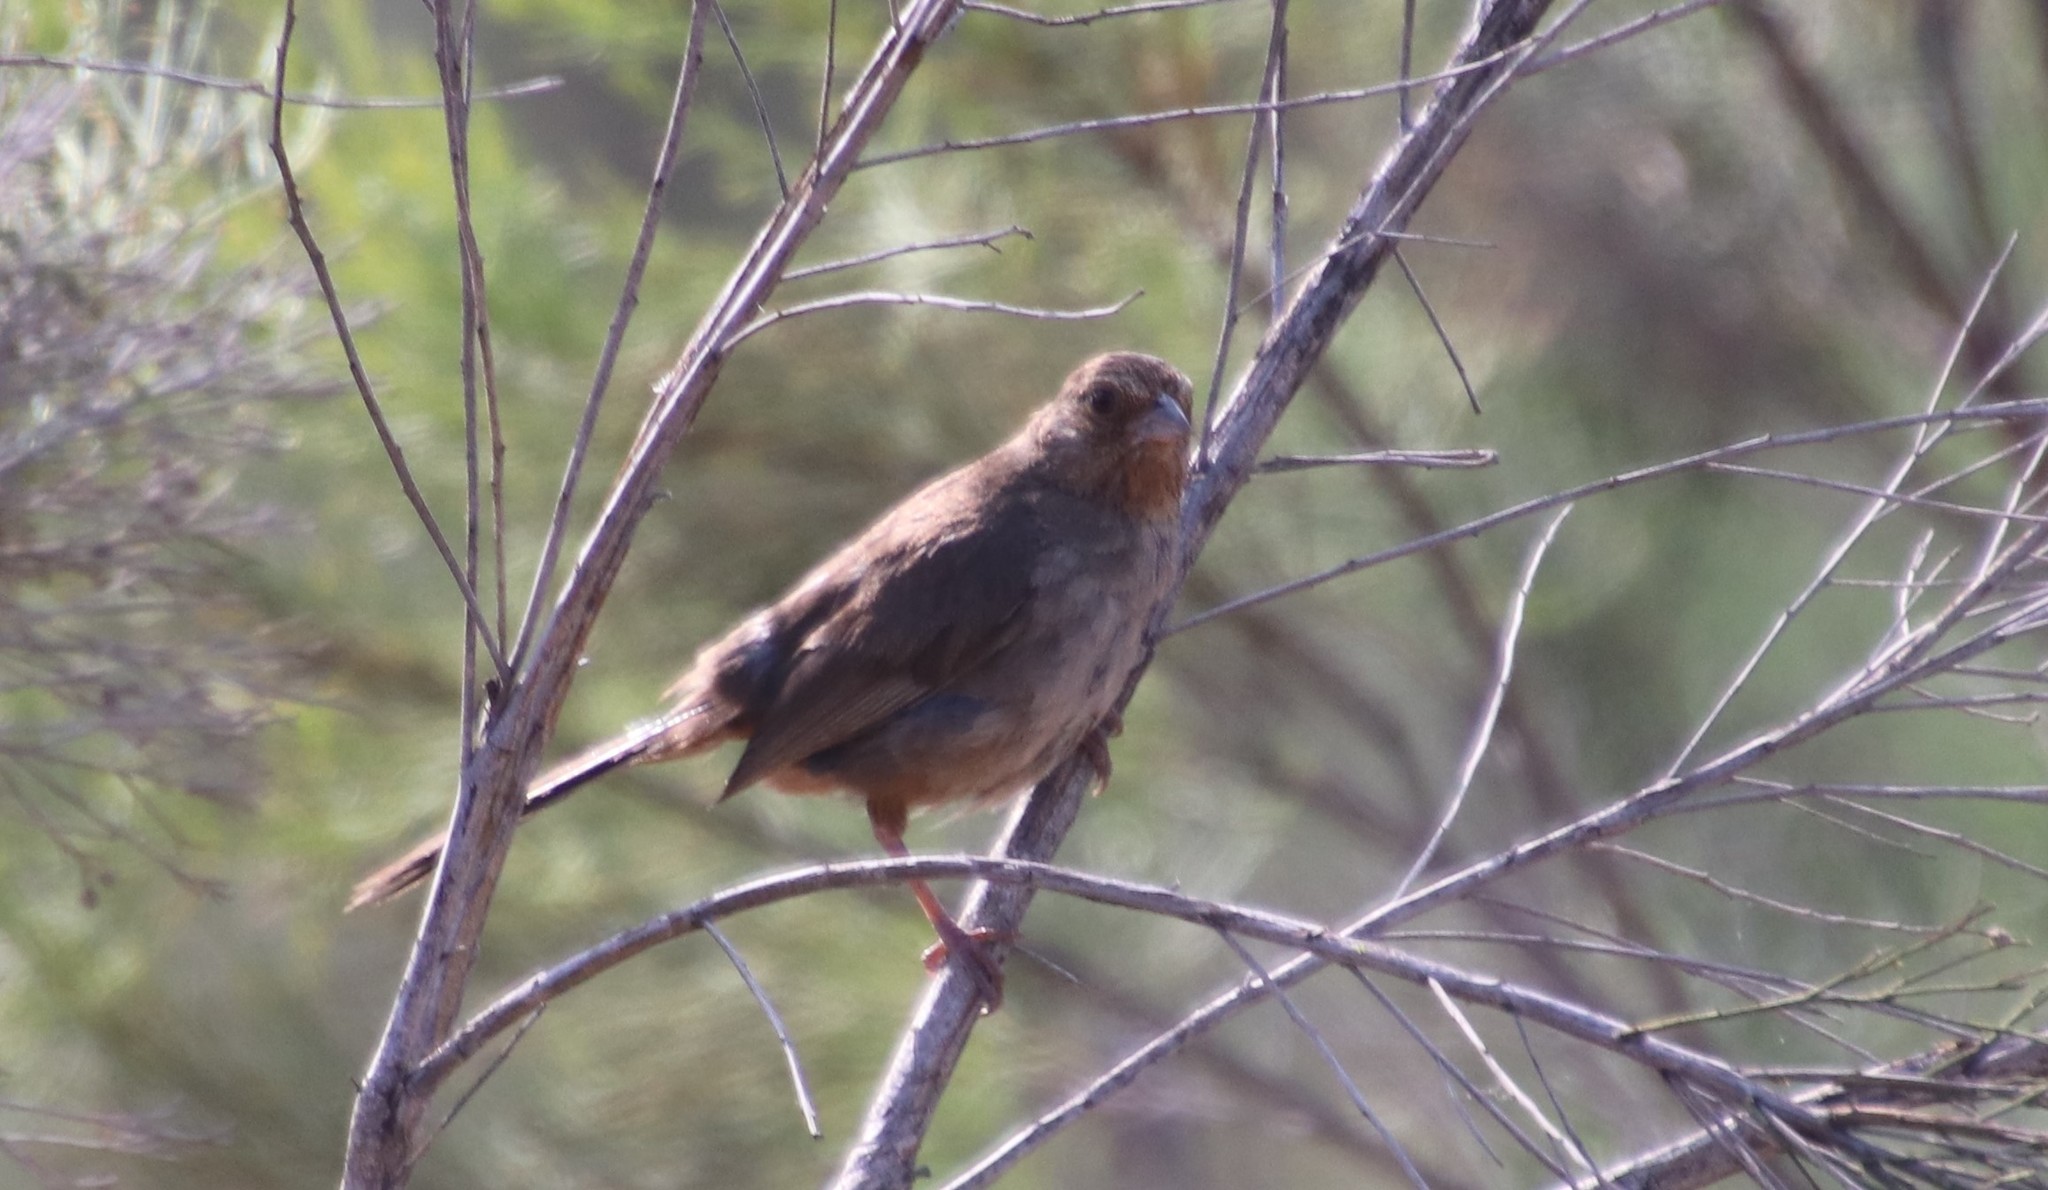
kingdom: Animalia
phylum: Chordata
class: Aves
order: Passeriformes
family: Passerellidae
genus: Melozone
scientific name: Melozone crissalis
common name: California towhee
